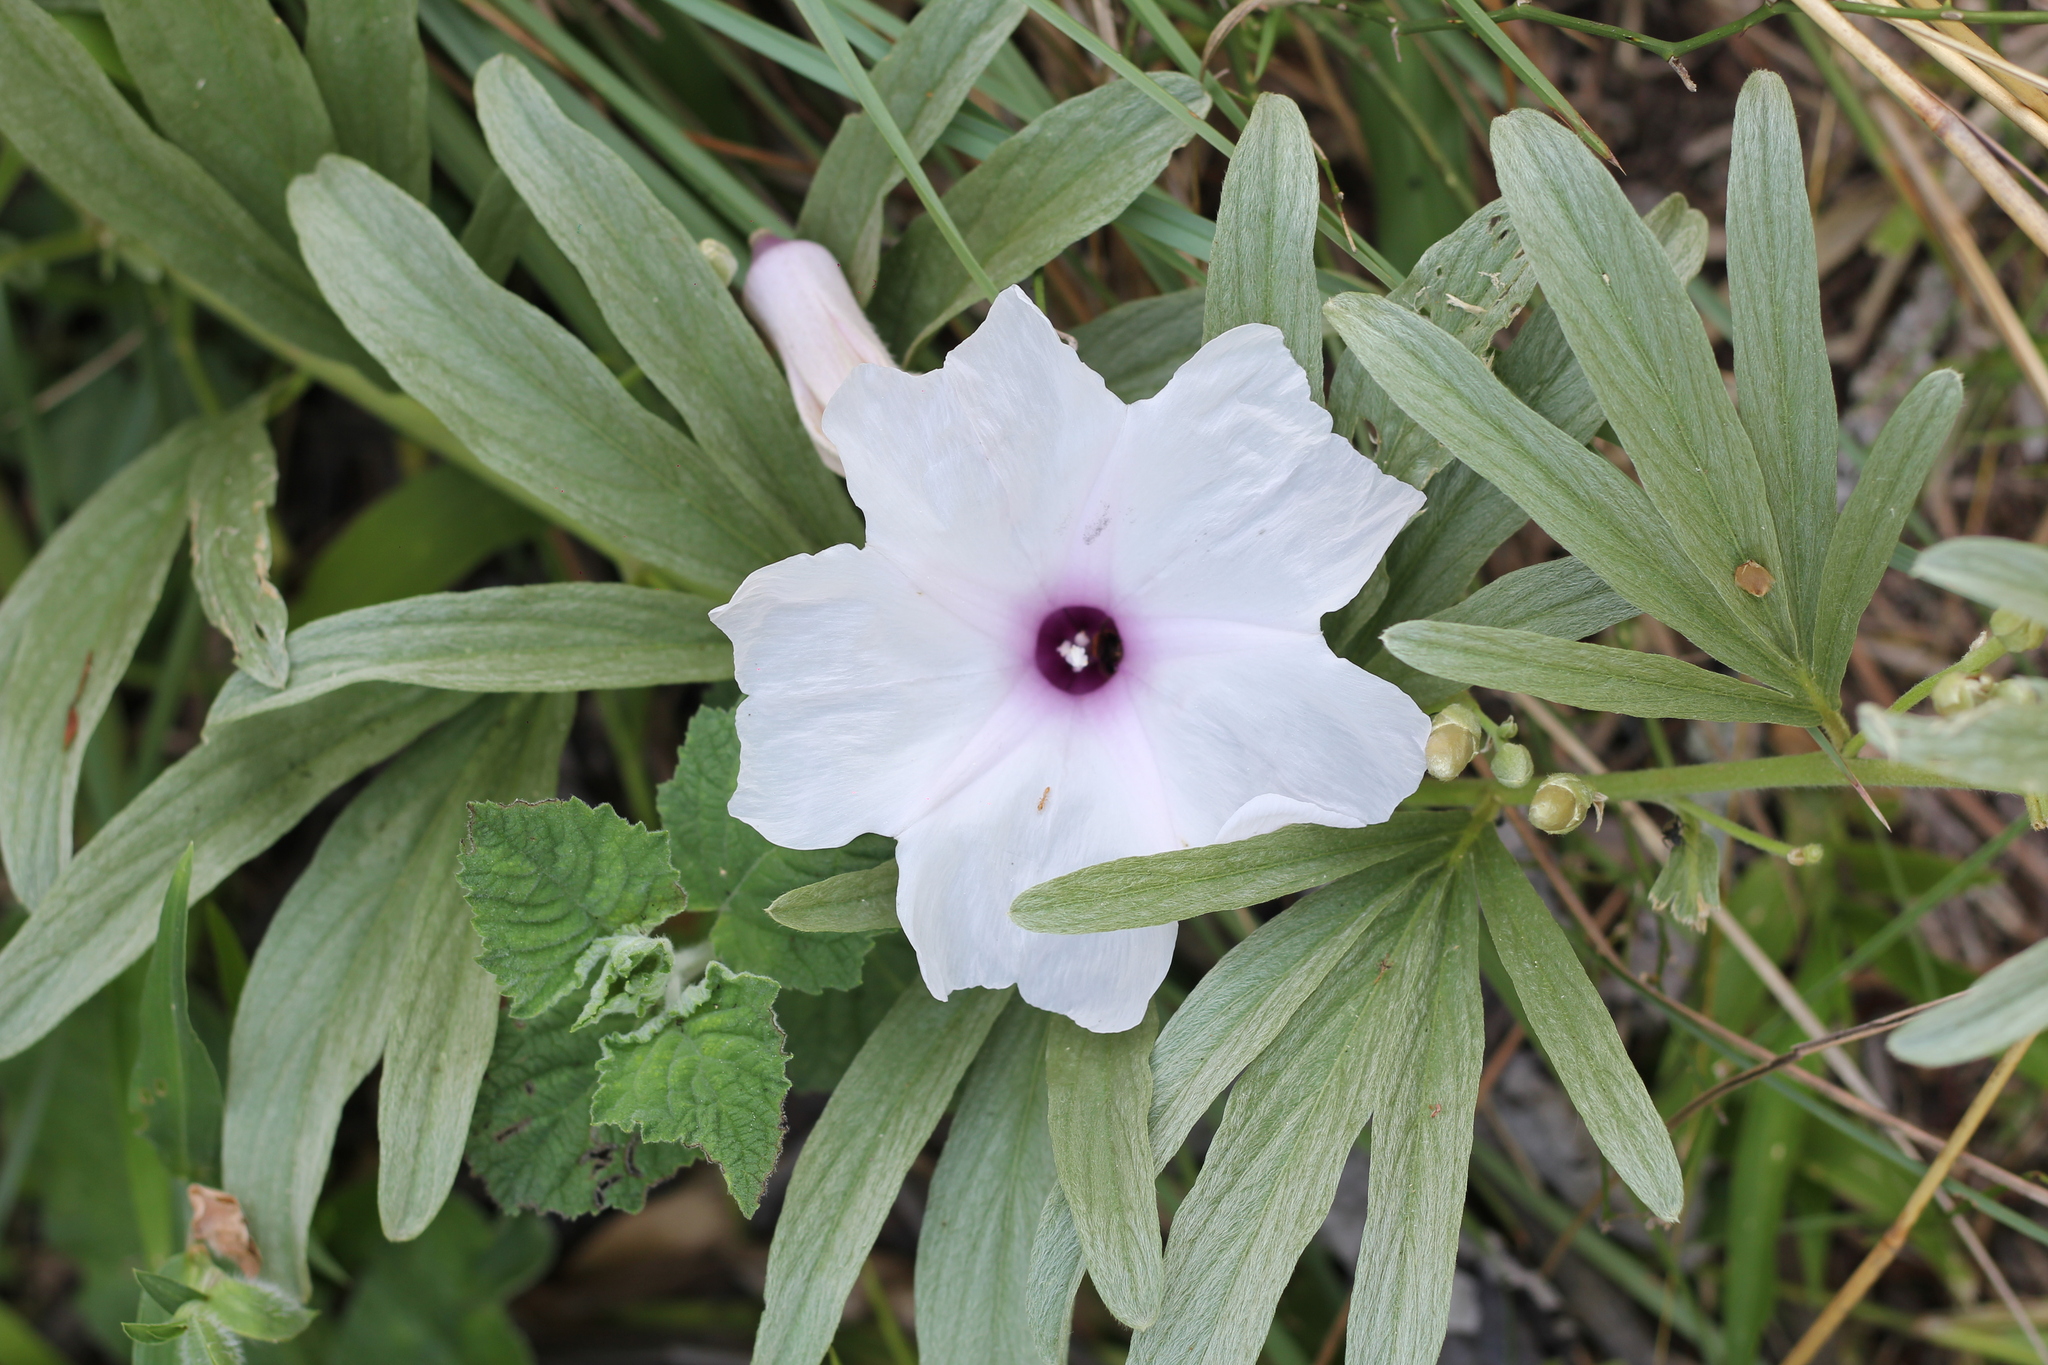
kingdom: Plantae
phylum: Tracheophyta
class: Magnoliopsida
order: Solanales
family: Convolvulaceae
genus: Ipomoea
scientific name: Ipomoea malvaeoides
